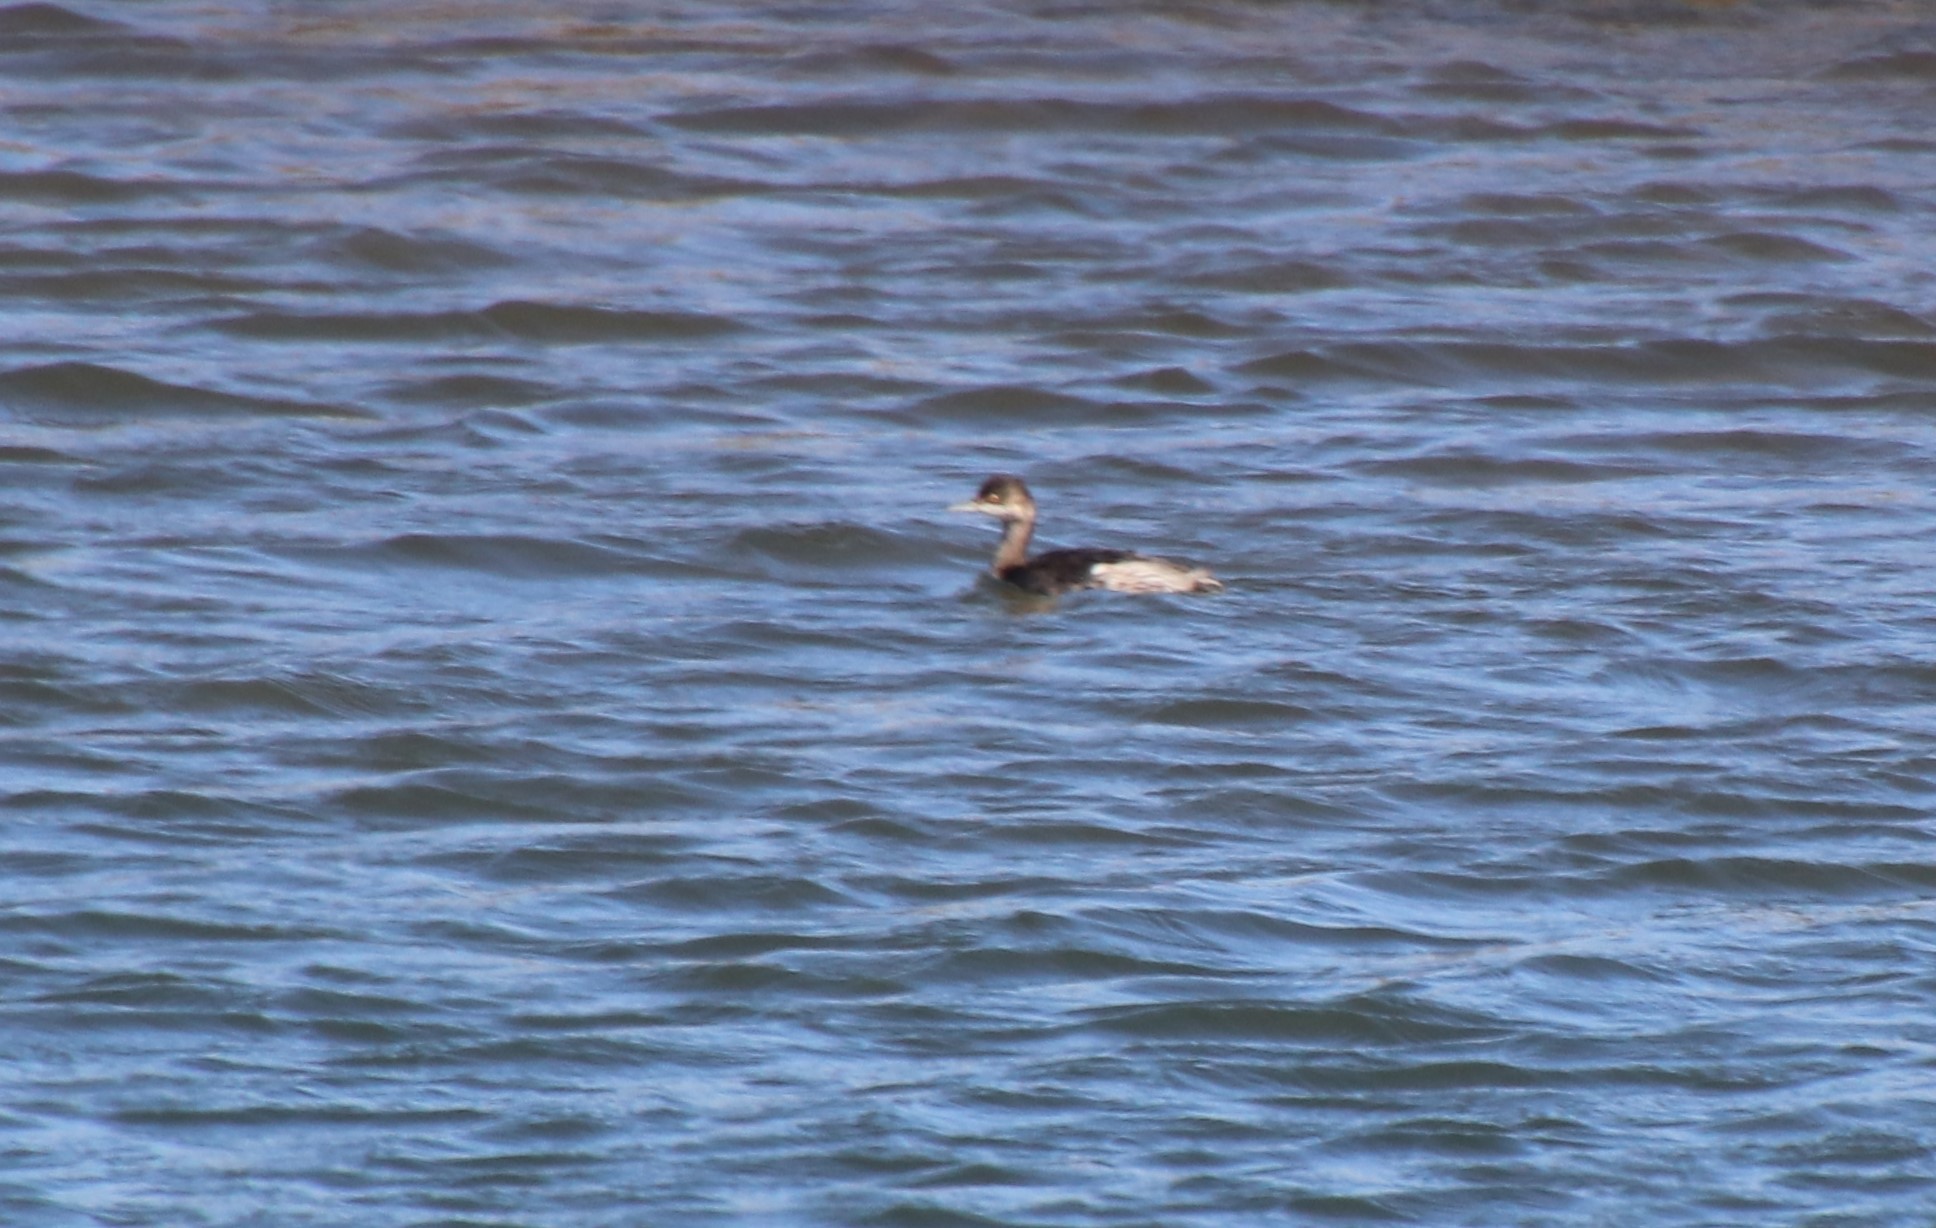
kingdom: Animalia
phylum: Chordata
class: Aves
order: Podicipediformes
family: Podicipedidae
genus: Podiceps
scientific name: Podiceps nigricollis
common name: Black-necked grebe
